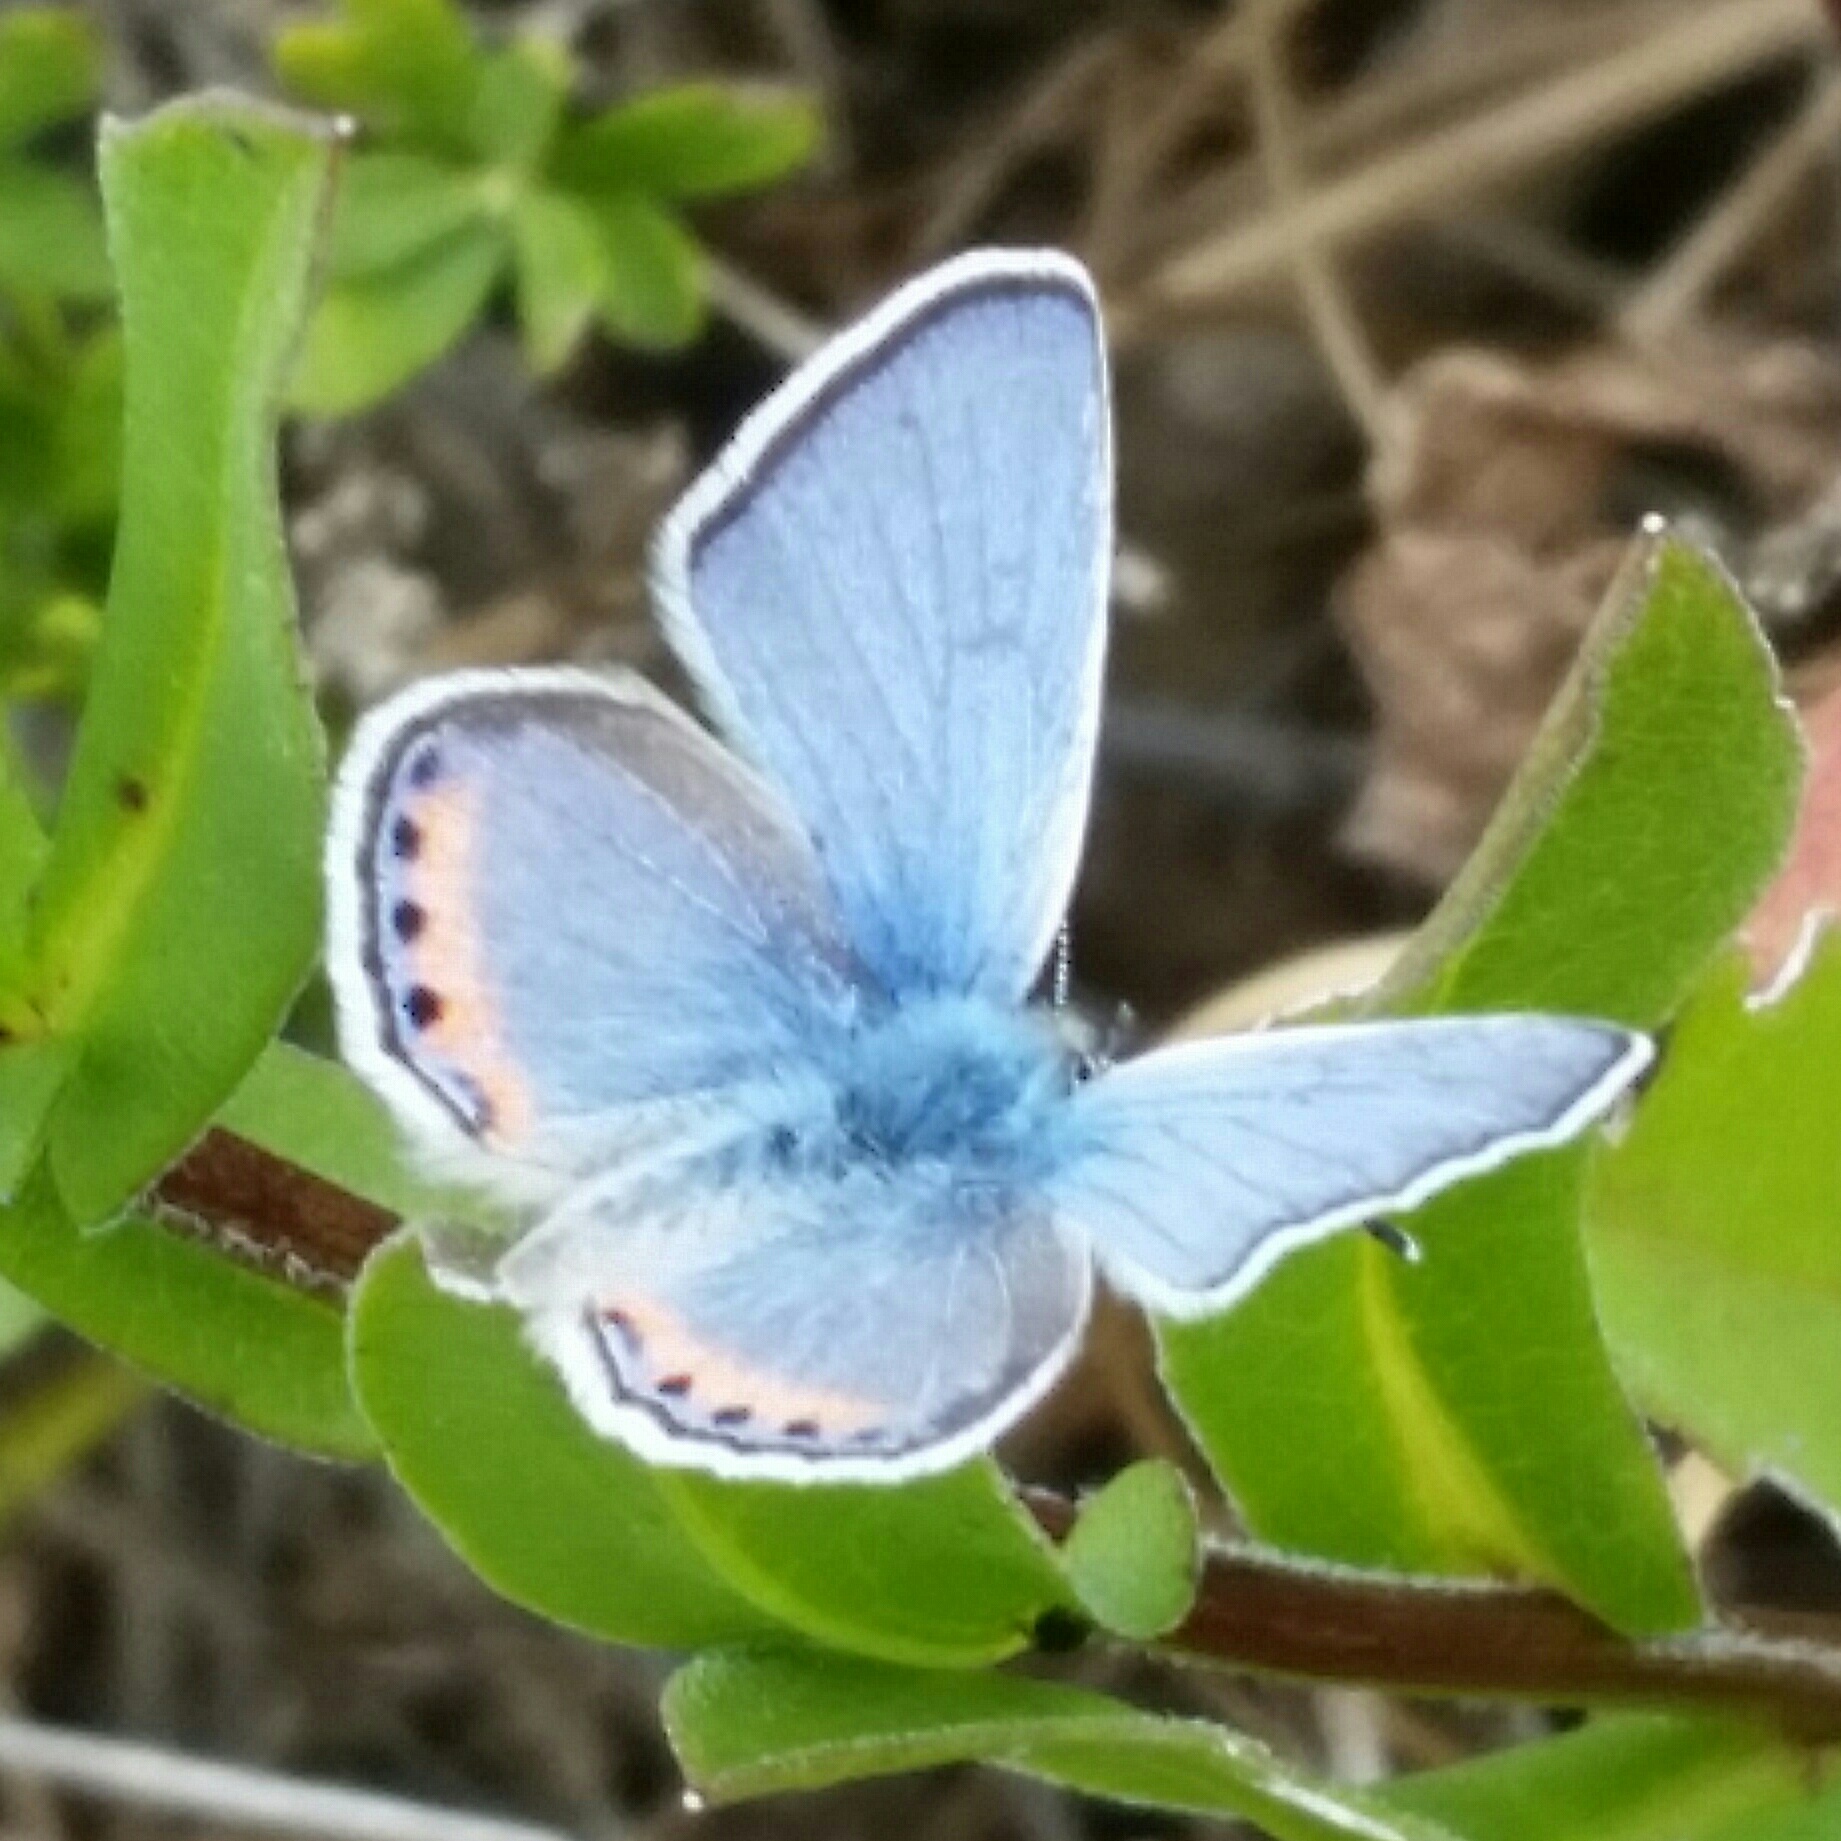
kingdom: Animalia
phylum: Arthropoda
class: Insecta
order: Lepidoptera
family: Lycaenidae
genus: Icaricia
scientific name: Icaricia acmon
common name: Acmon blue
